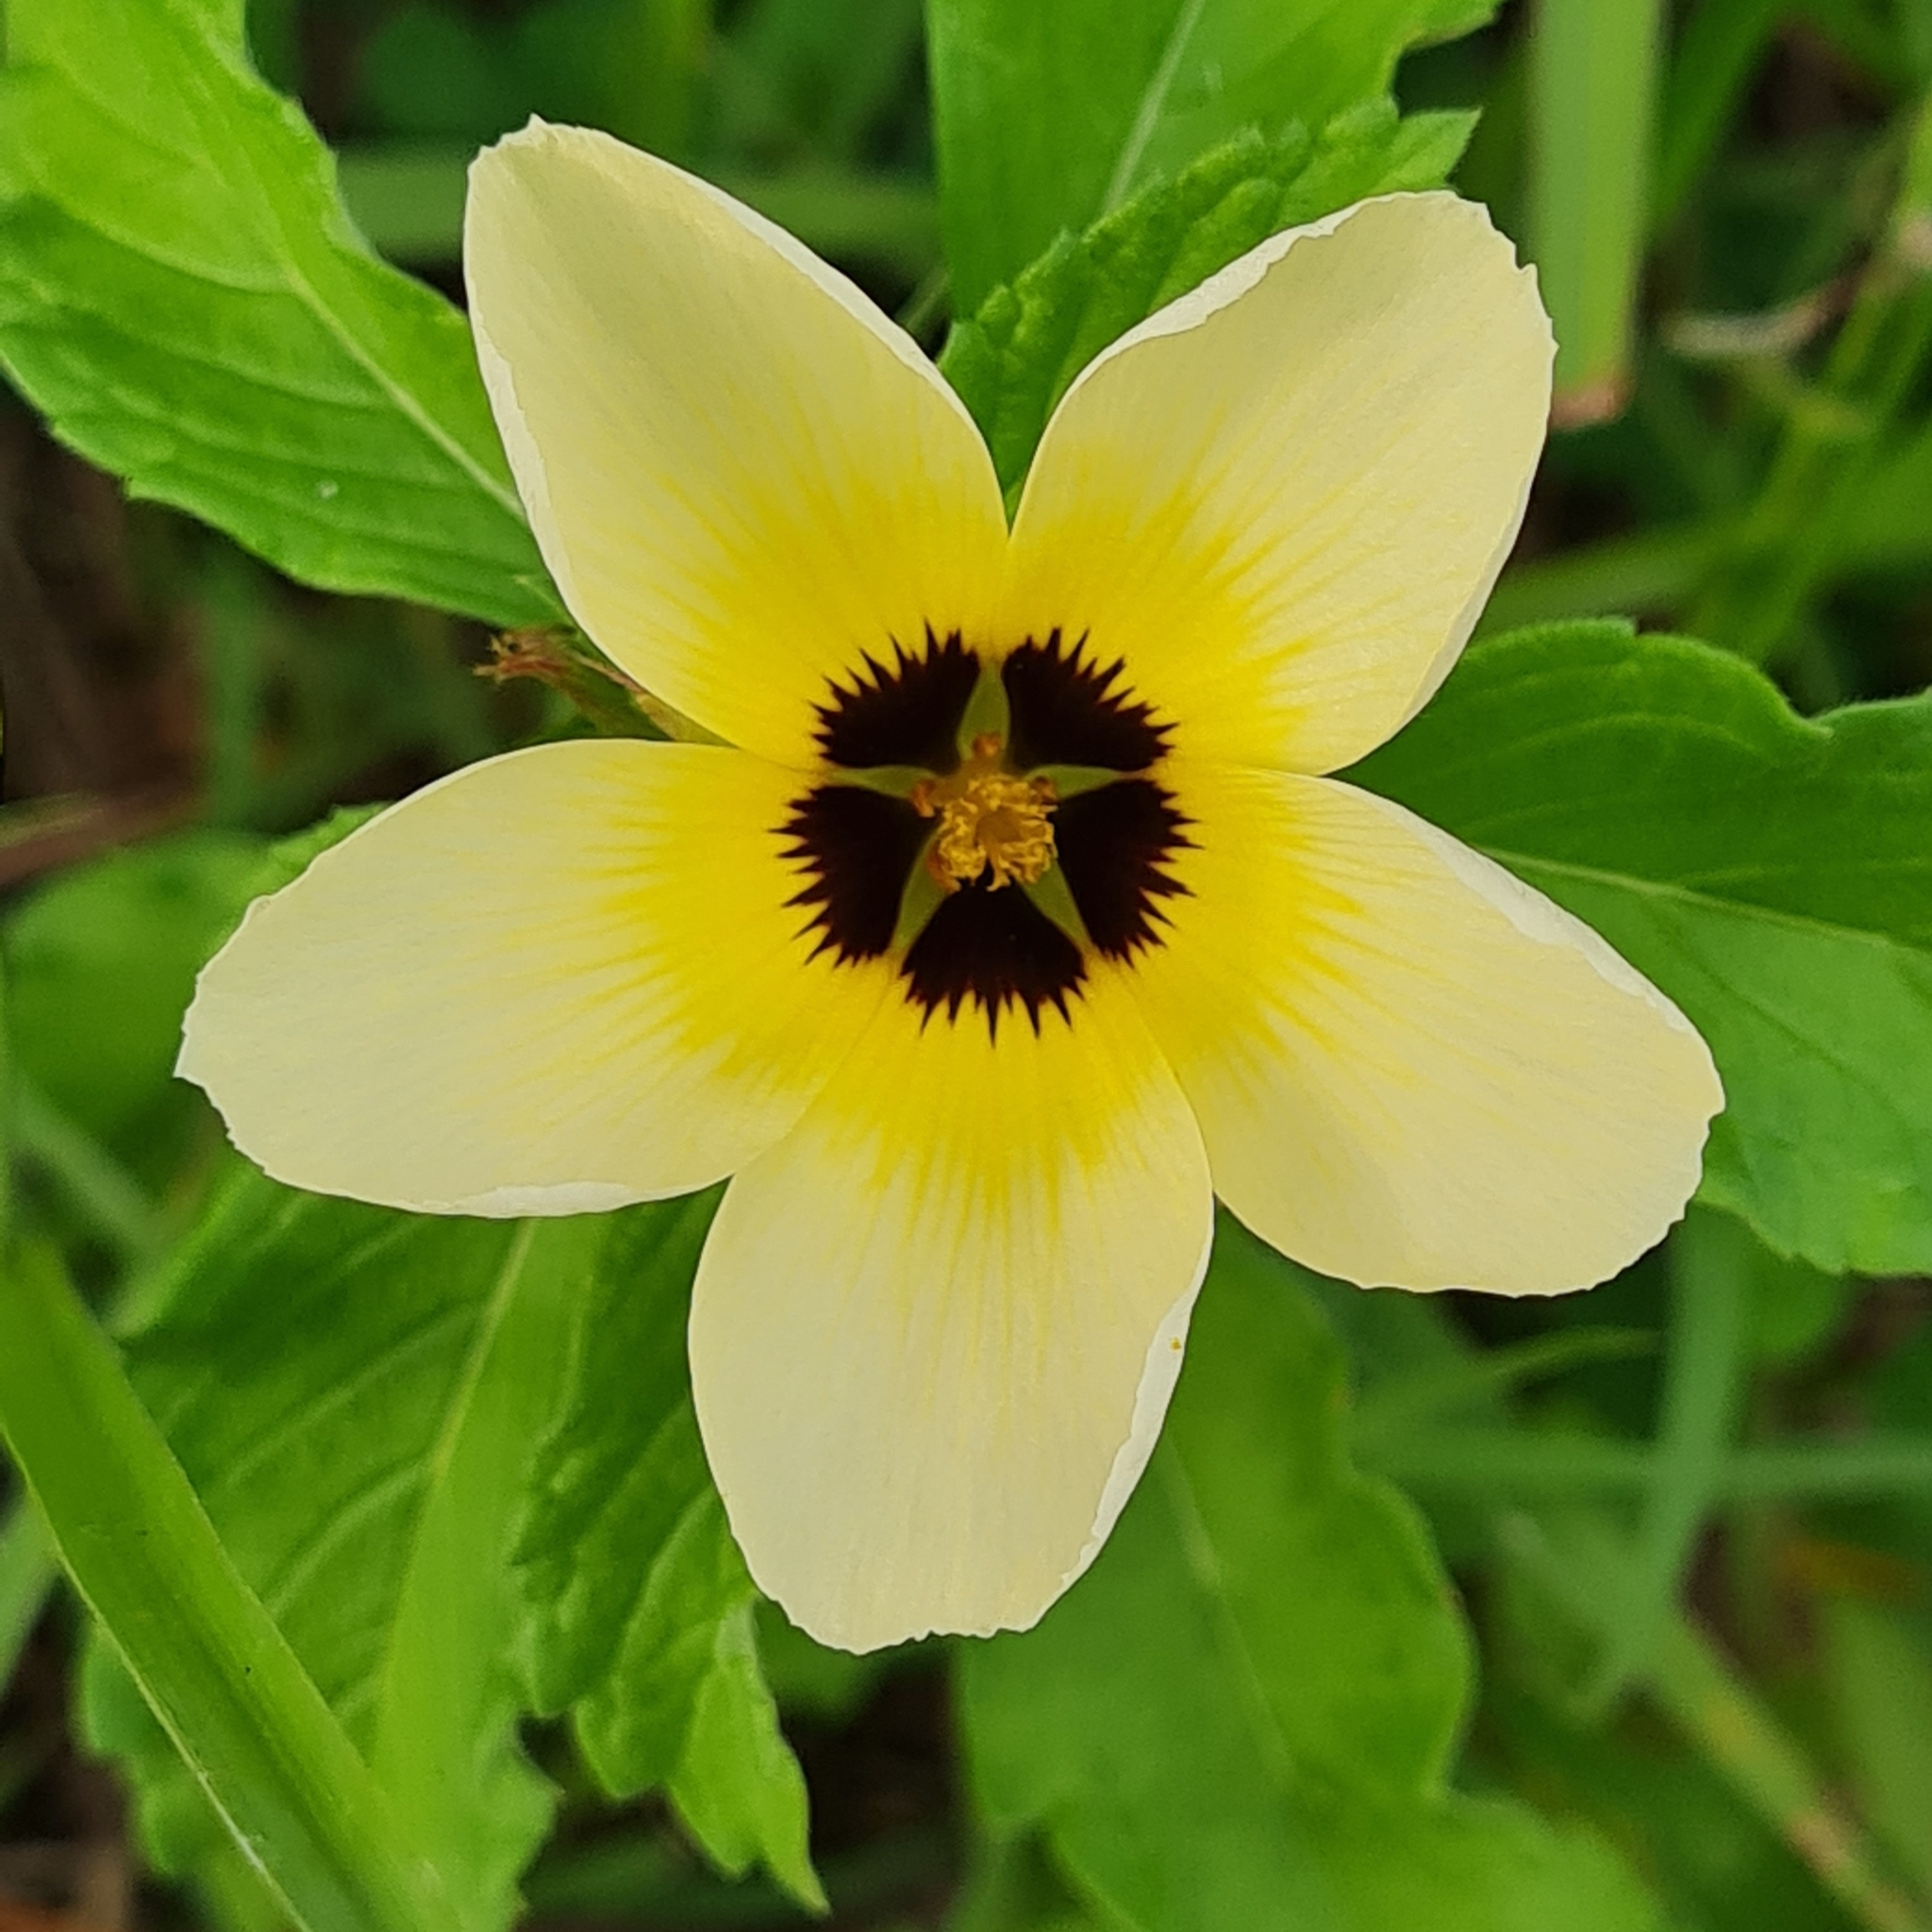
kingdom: Plantae
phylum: Tracheophyta
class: Magnoliopsida
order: Malpighiales
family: Turneraceae
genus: Turnera
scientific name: Turnera subulata
